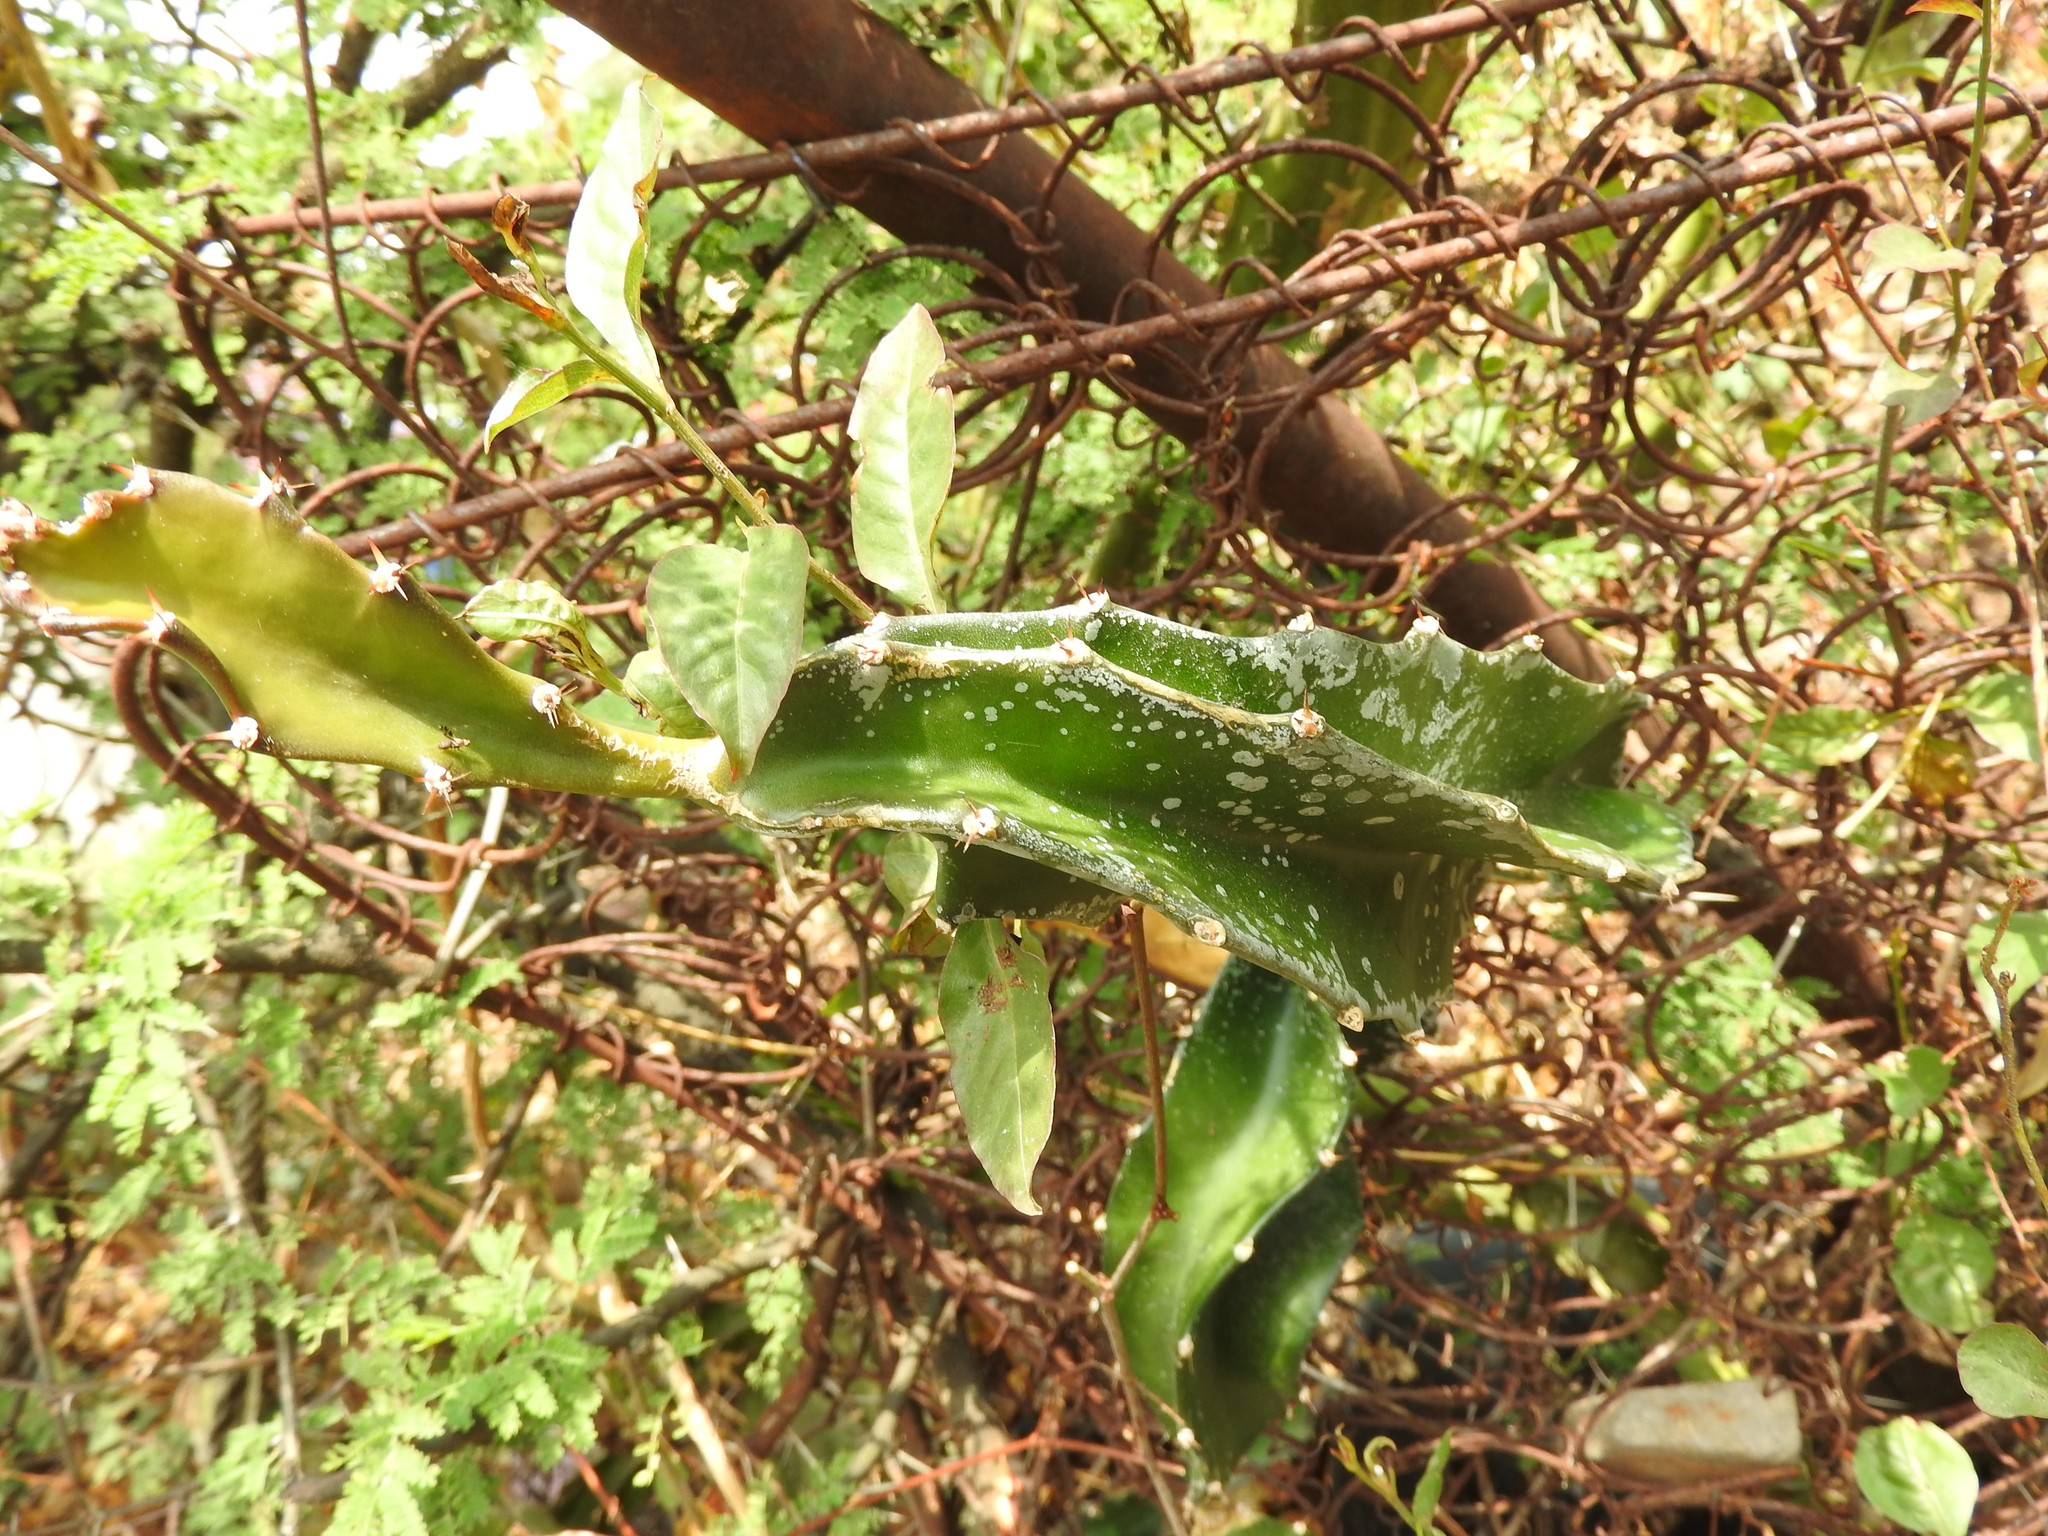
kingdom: Plantae
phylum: Tracheophyta
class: Magnoliopsida
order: Caryophyllales
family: Cactaceae
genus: Selenicereus
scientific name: Selenicereus undatus
